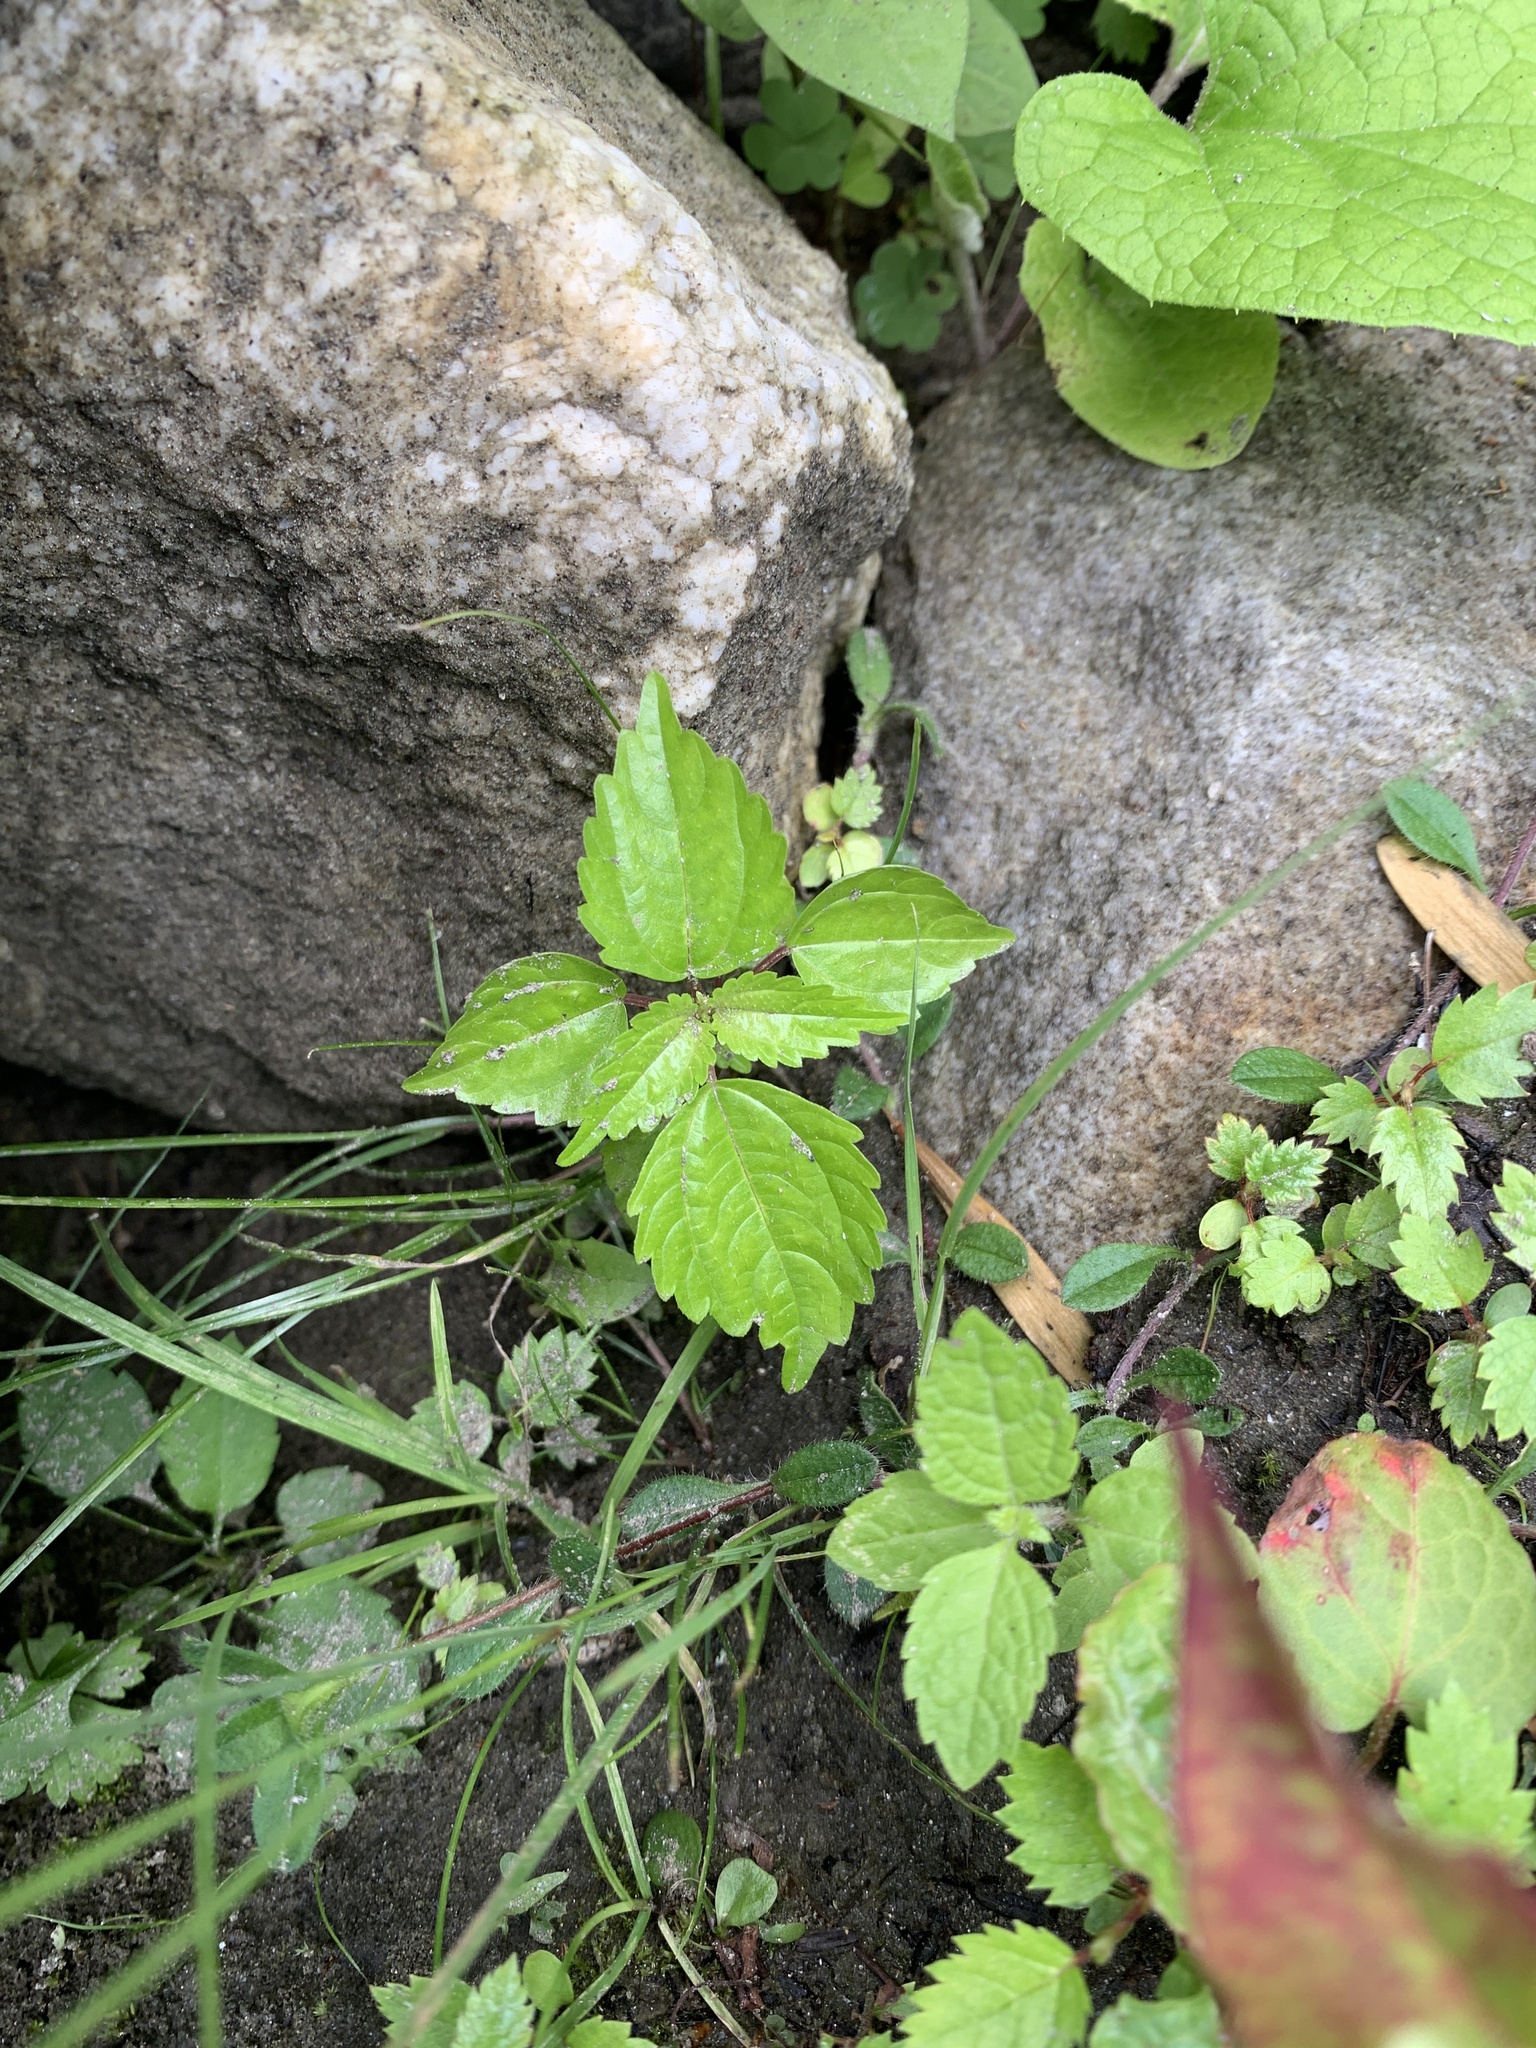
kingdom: Plantae
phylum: Tracheophyta
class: Magnoliopsida
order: Rosales
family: Urticaceae
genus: Pilea
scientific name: Pilea pumila
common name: Clearweed
